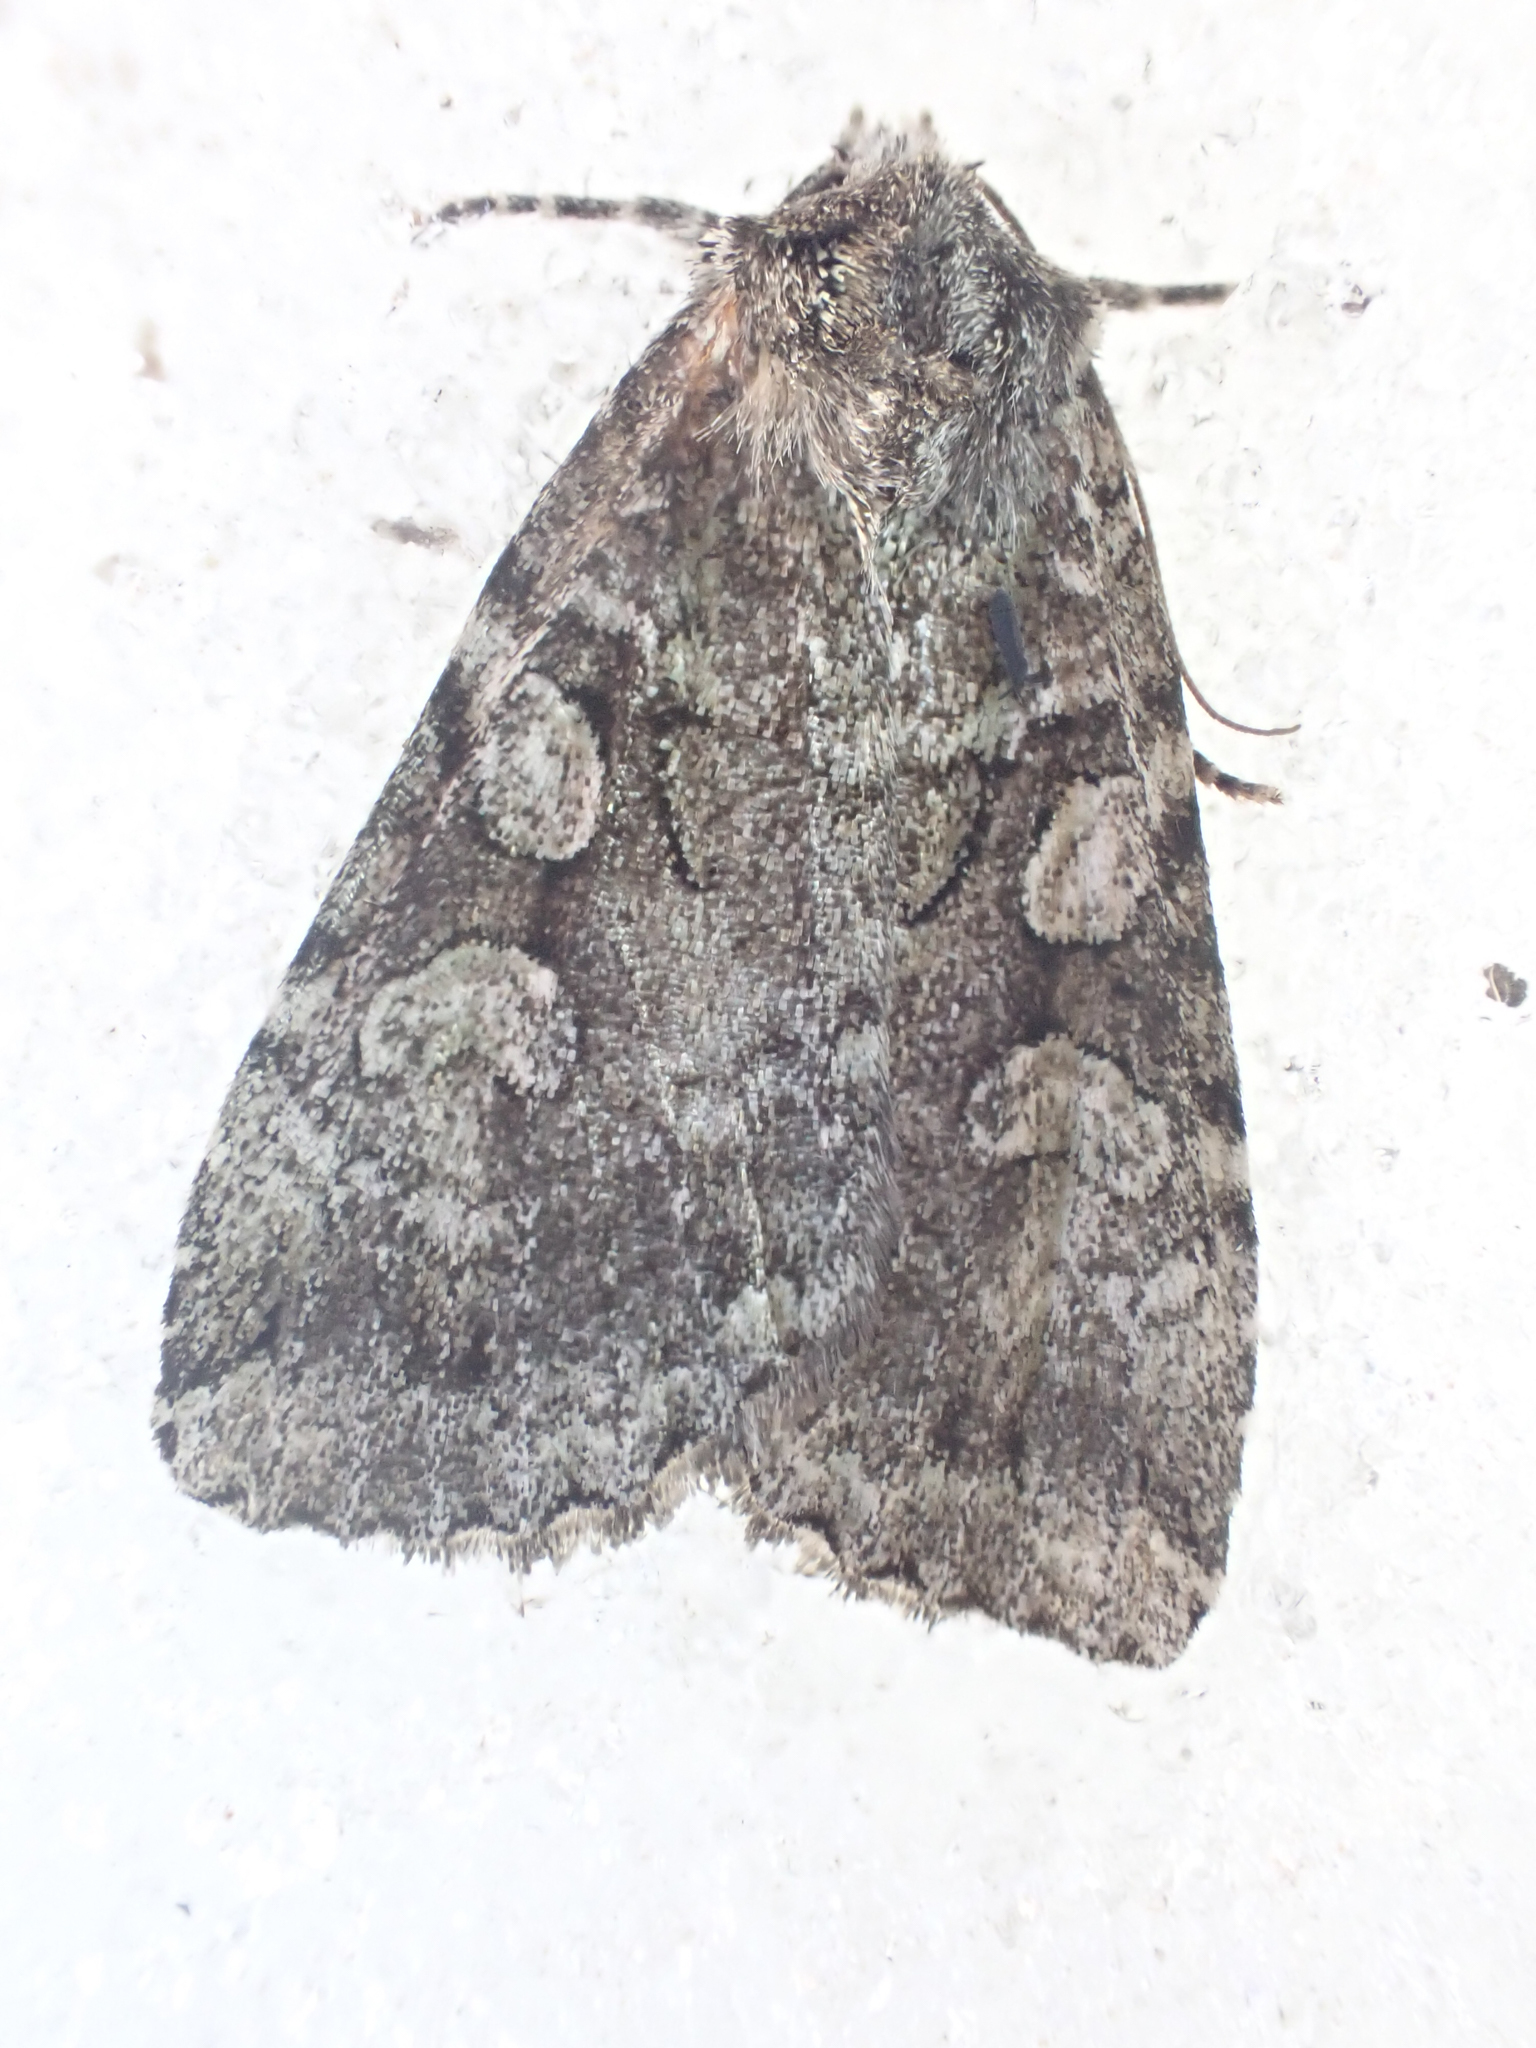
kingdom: Animalia
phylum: Arthropoda
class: Insecta
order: Lepidoptera
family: Noctuidae
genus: Anaplectoides
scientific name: Anaplectoides pressus
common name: Dappled dart
